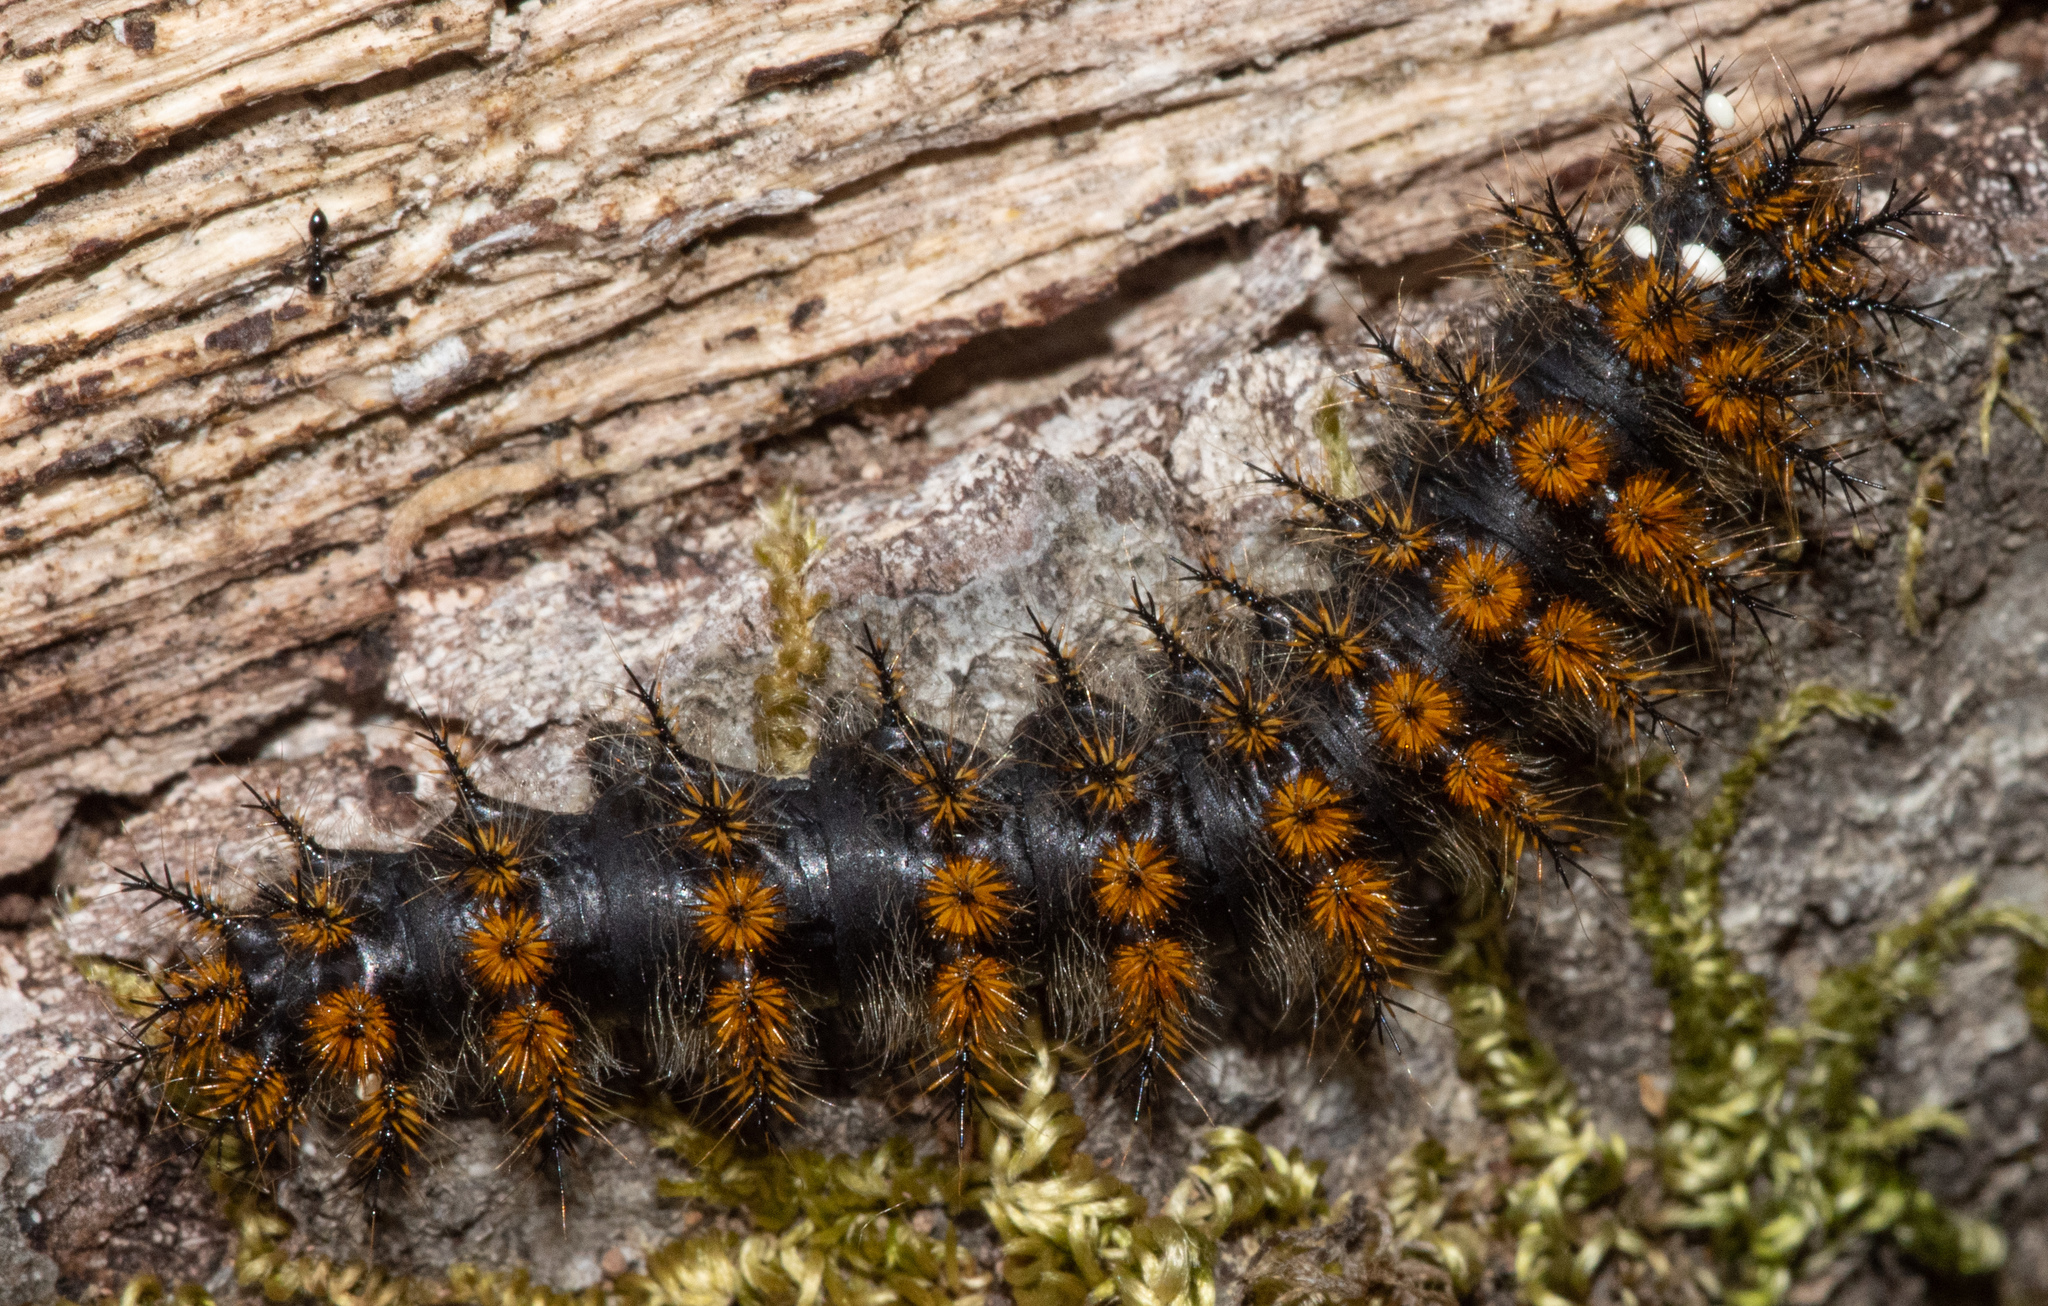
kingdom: Animalia
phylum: Arthropoda
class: Insecta
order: Lepidoptera
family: Saturniidae
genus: Hemileuca
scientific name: Hemileuca eglanterina
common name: Western sheepmoth
